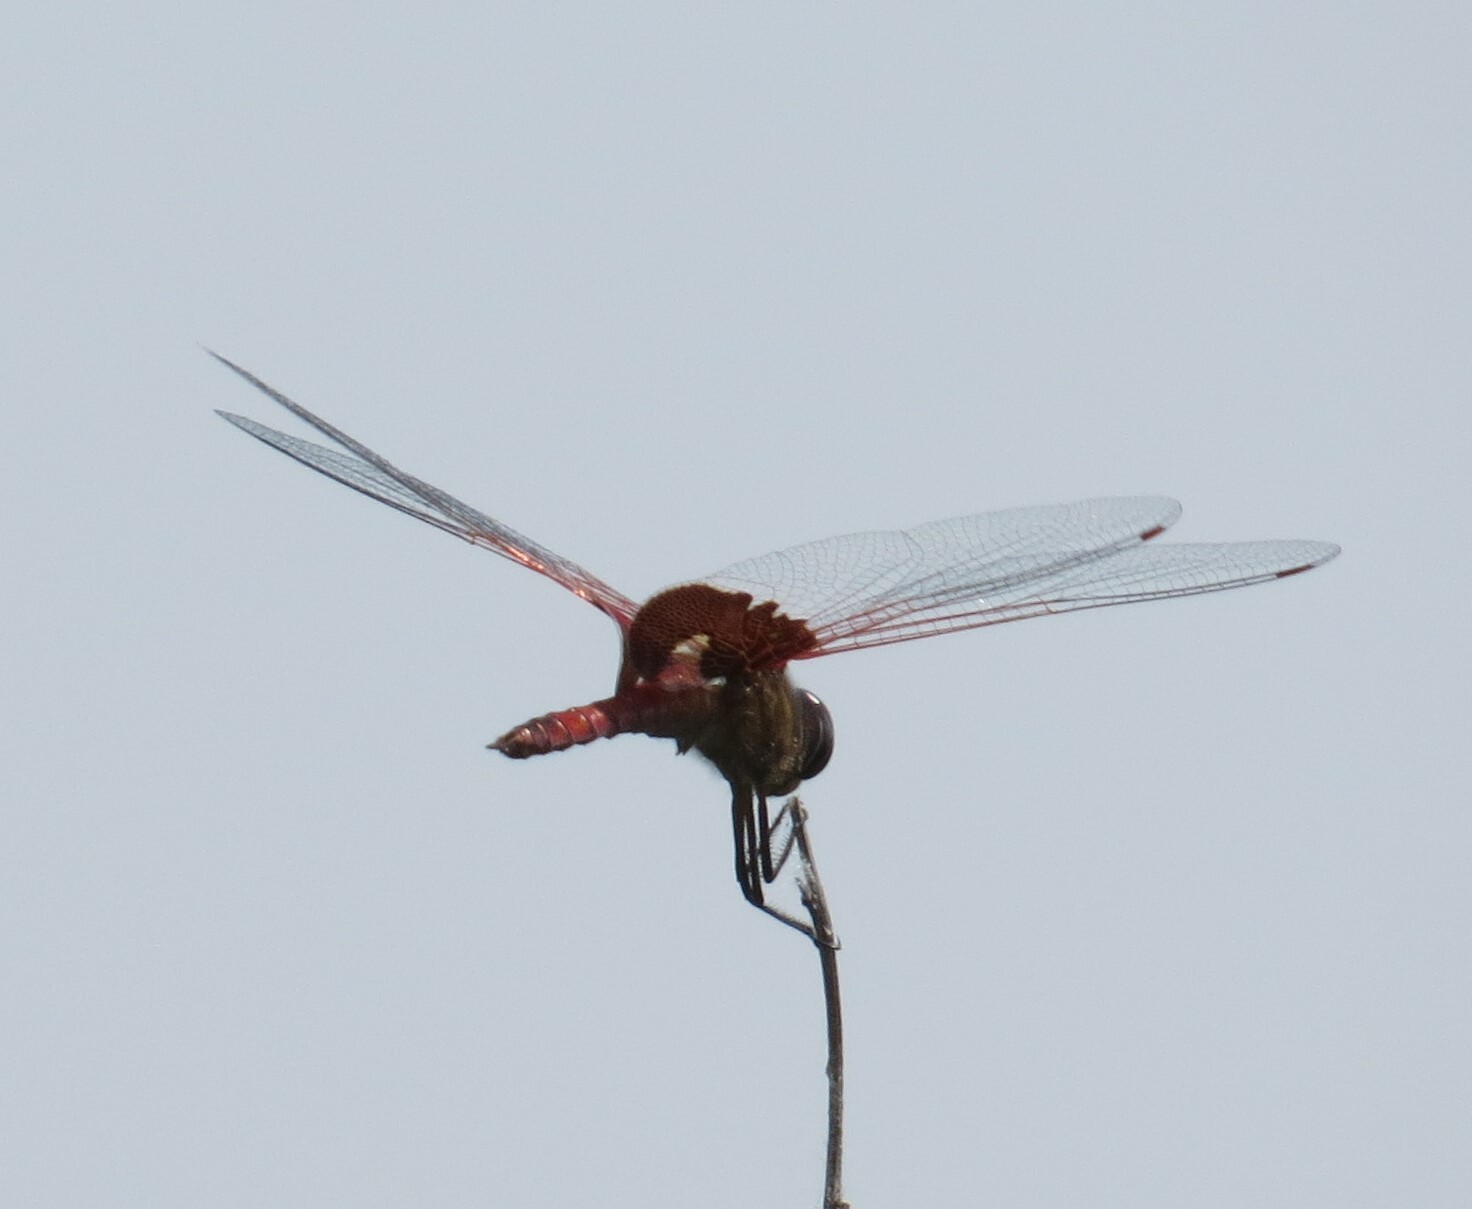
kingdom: Animalia
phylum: Arthropoda
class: Insecta
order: Odonata
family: Libellulidae
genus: Tramea
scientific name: Tramea onusta
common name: Red saddlebags
